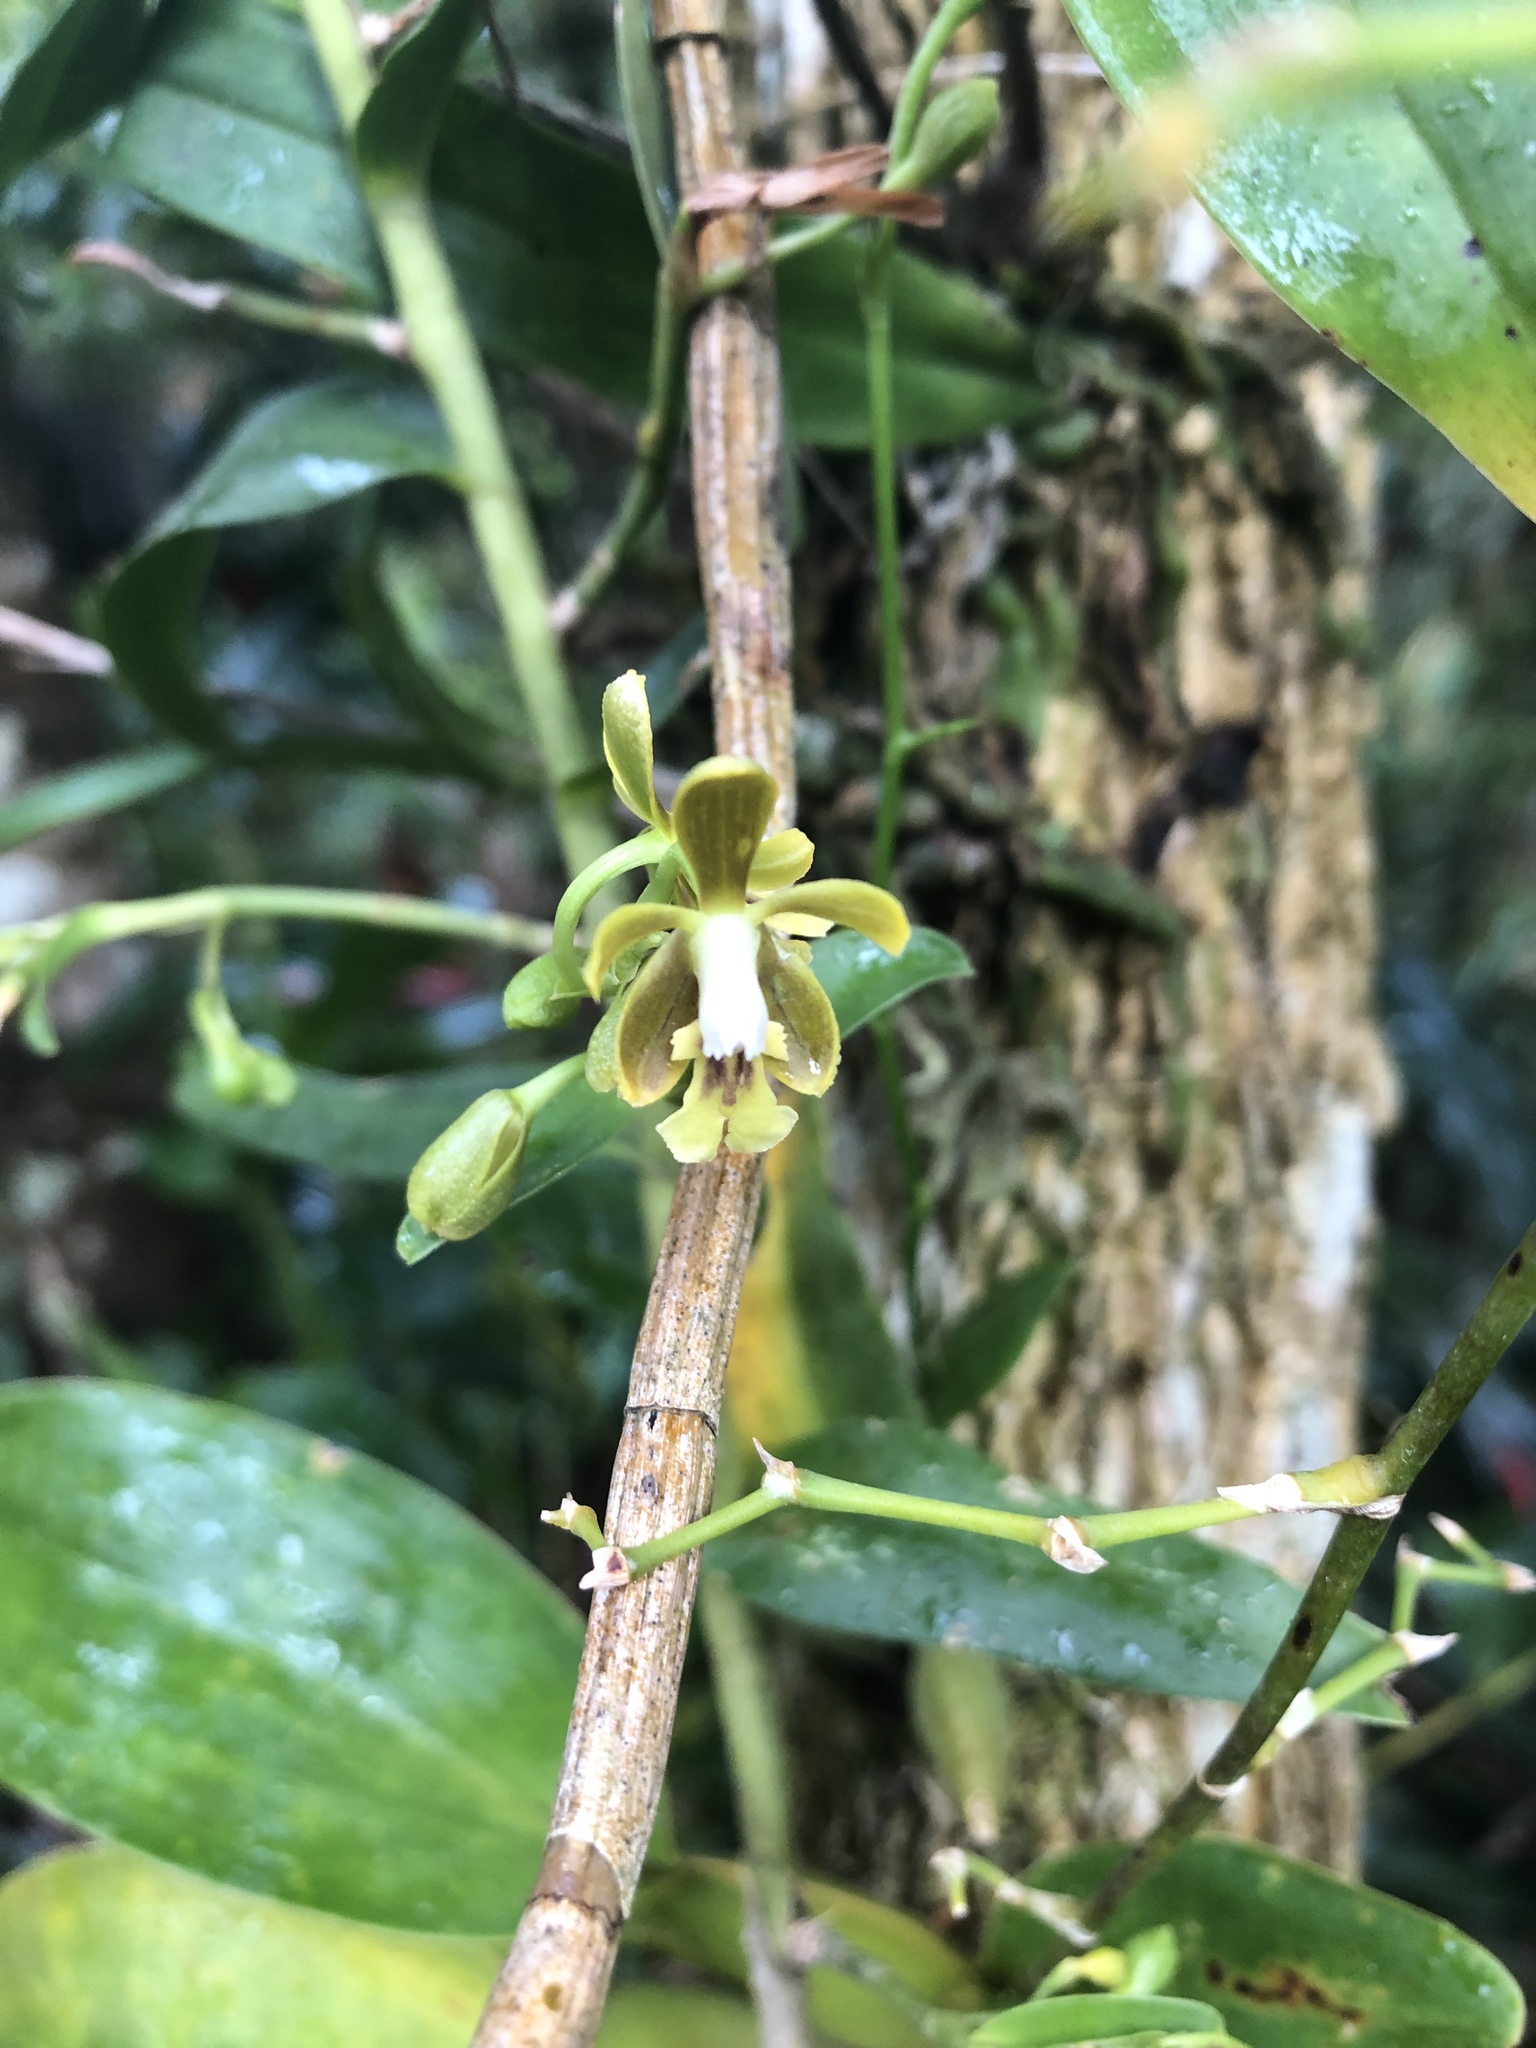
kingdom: Plantae
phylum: Tracheophyta
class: Liliopsida
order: Asparagales
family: Orchidaceae
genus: Epidendrum
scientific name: Epidendrum exasperatum
